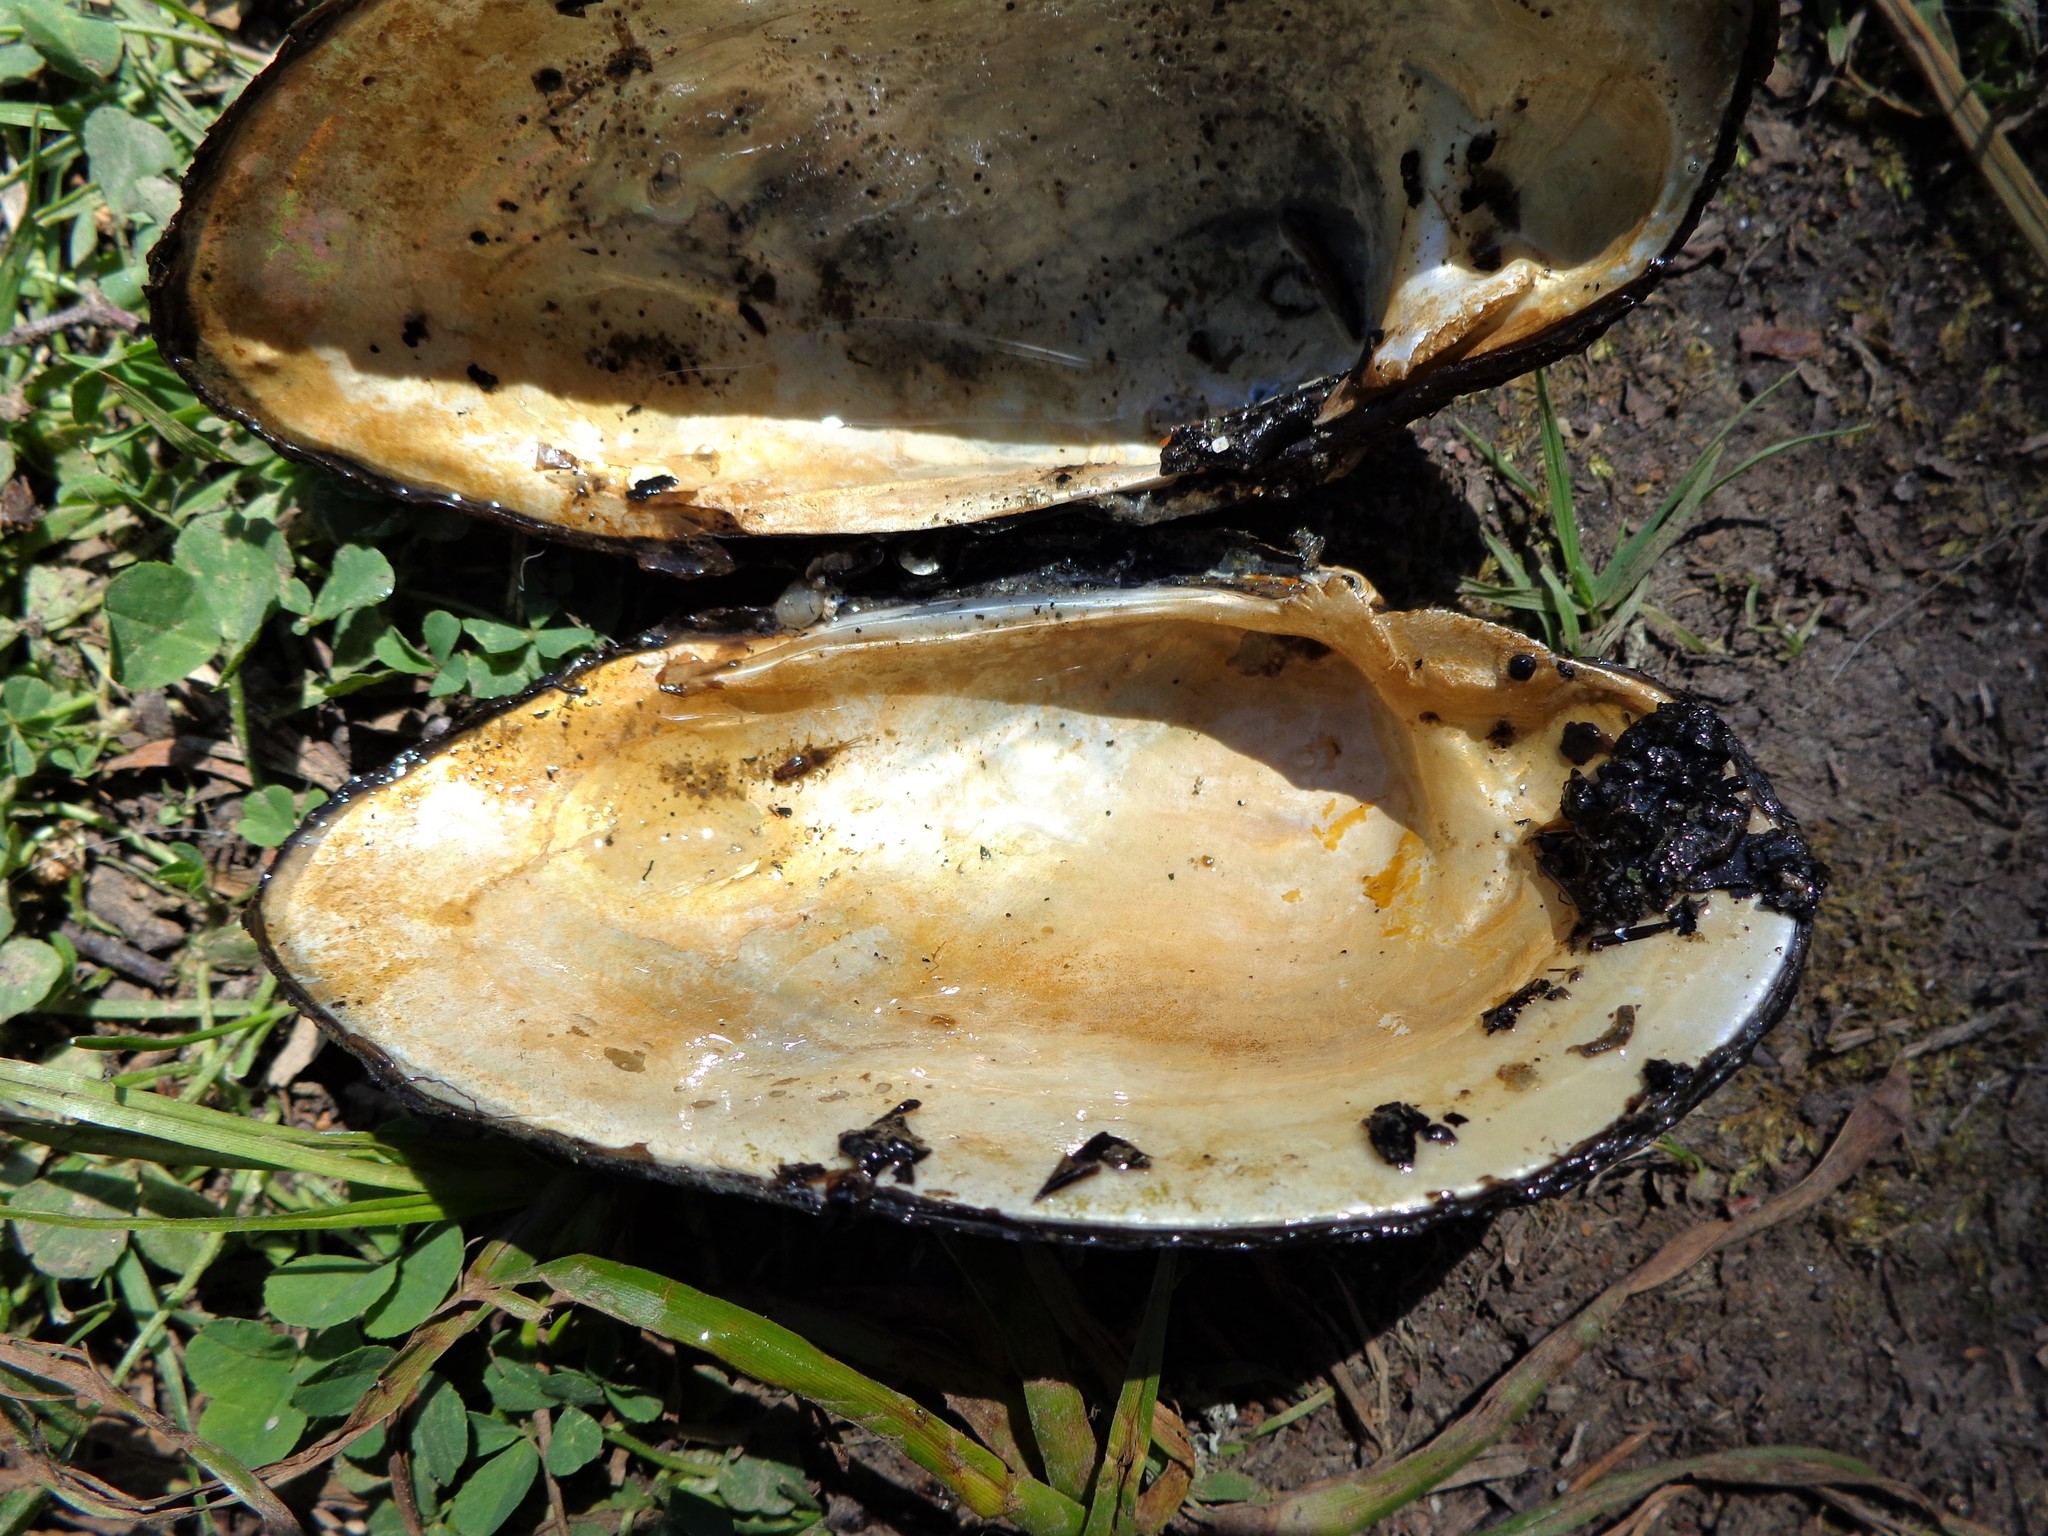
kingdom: Animalia
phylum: Mollusca
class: Bivalvia
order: Unionida
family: Unionidae
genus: Unio
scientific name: Unio tumidus
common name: Swollen river mussel
